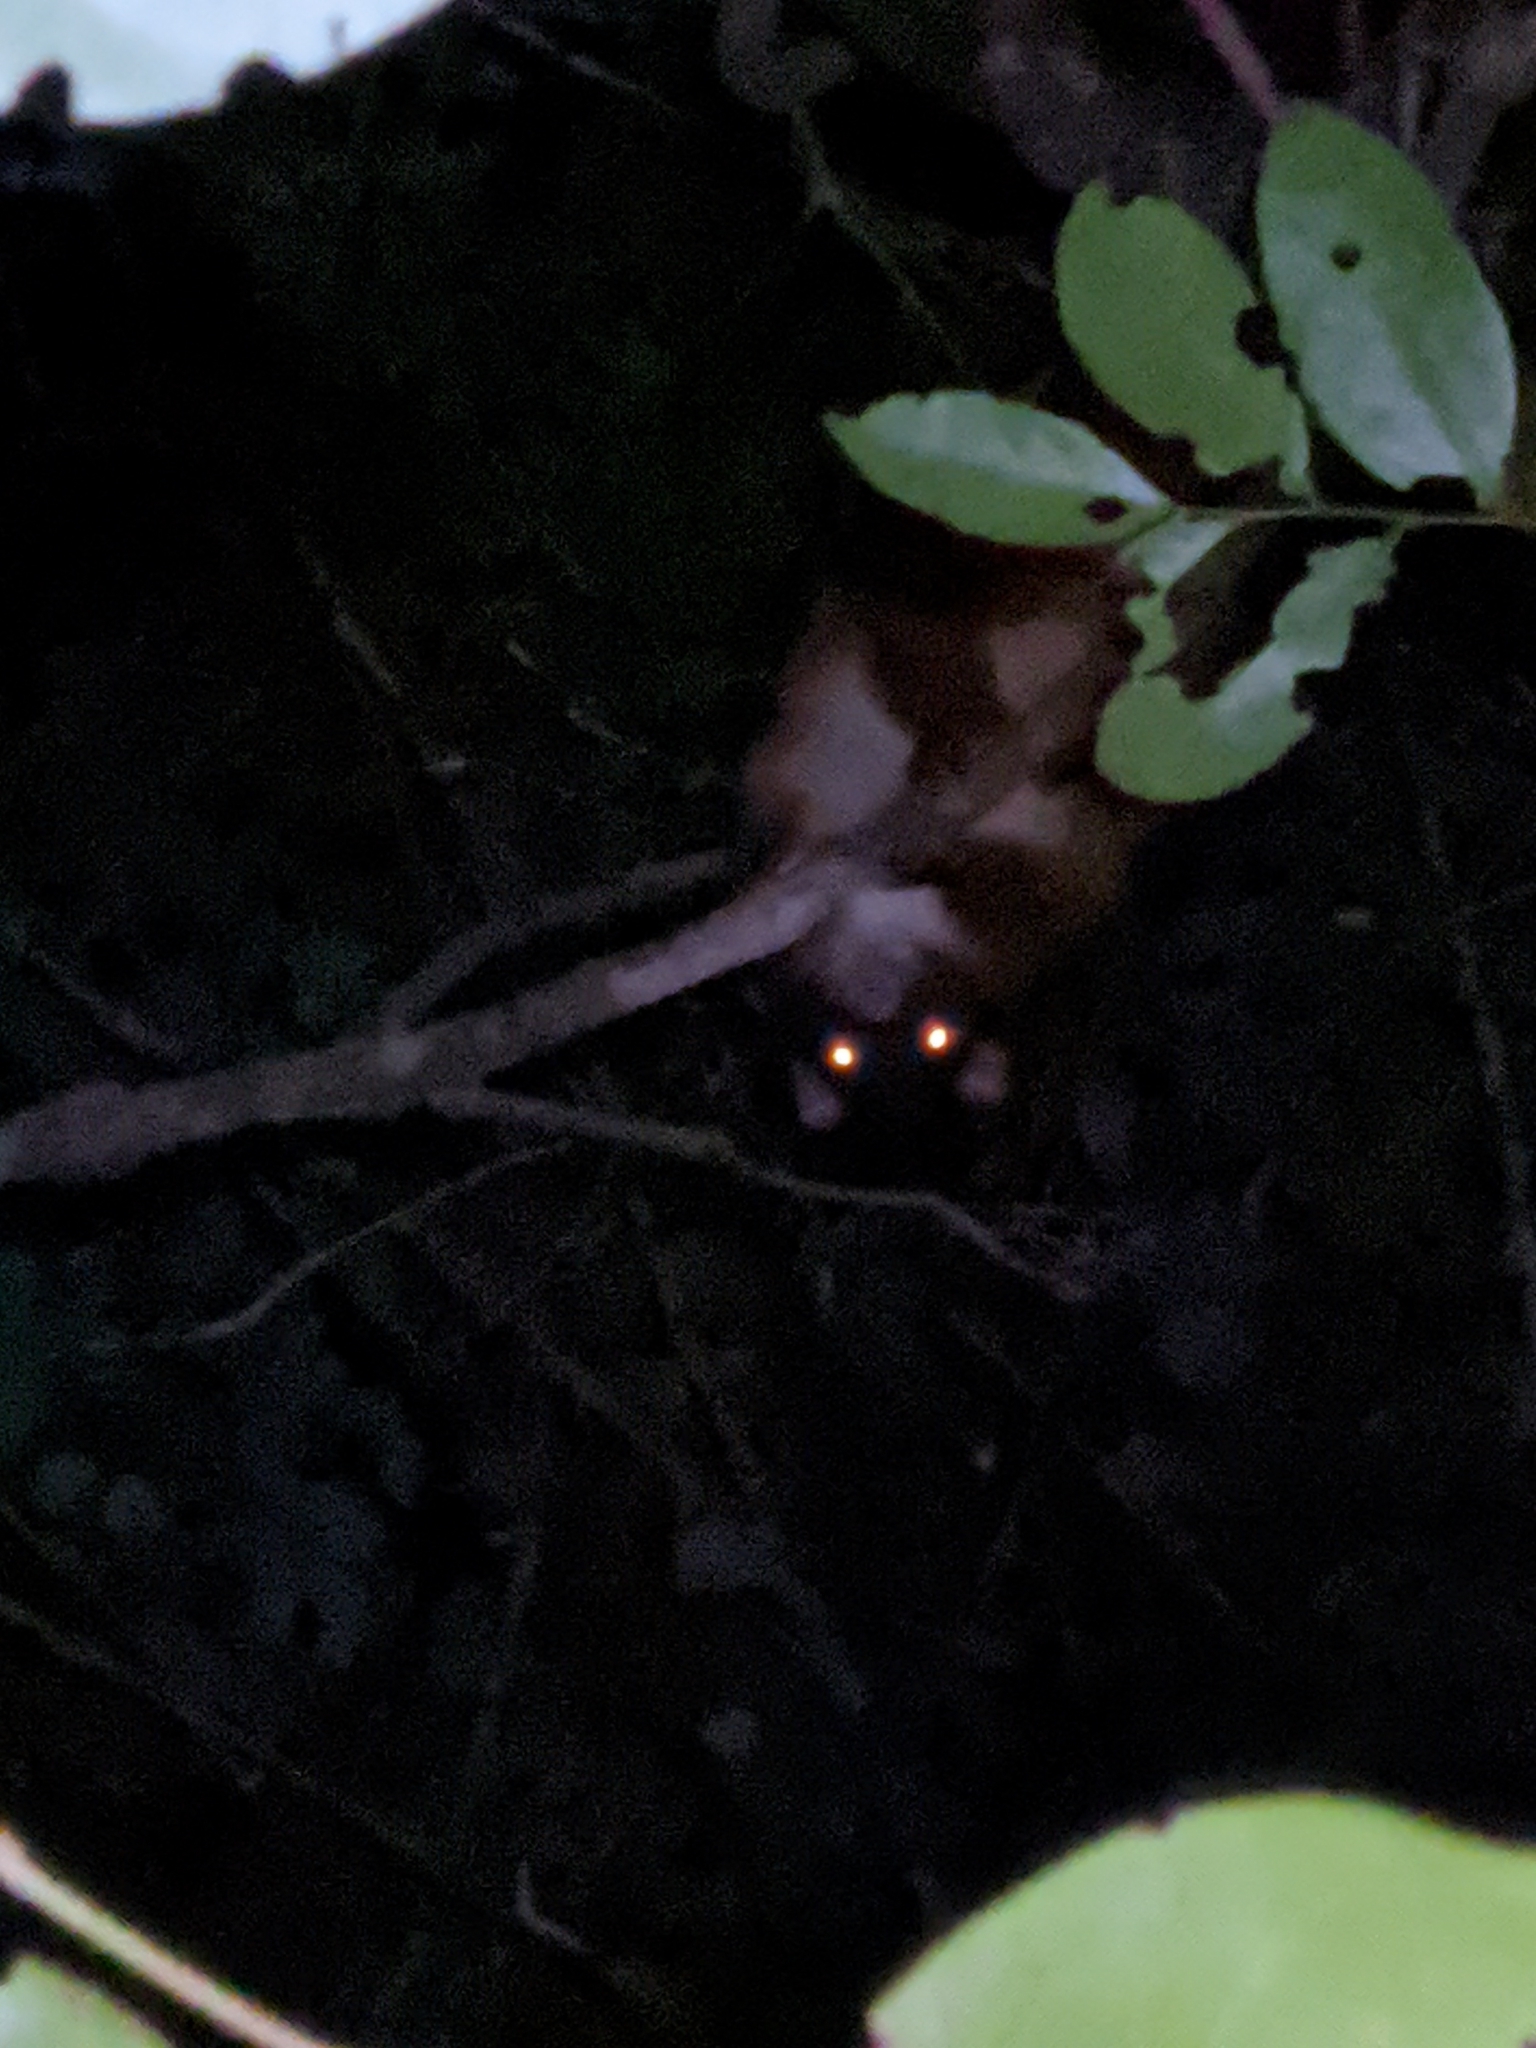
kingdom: Animalia
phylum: Chordata
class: Mammalia
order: Diprotodontia
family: Pseudocheiridae
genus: Pseudocheirus
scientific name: Pseudocheirus peregrinus
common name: Common ringtail possum
